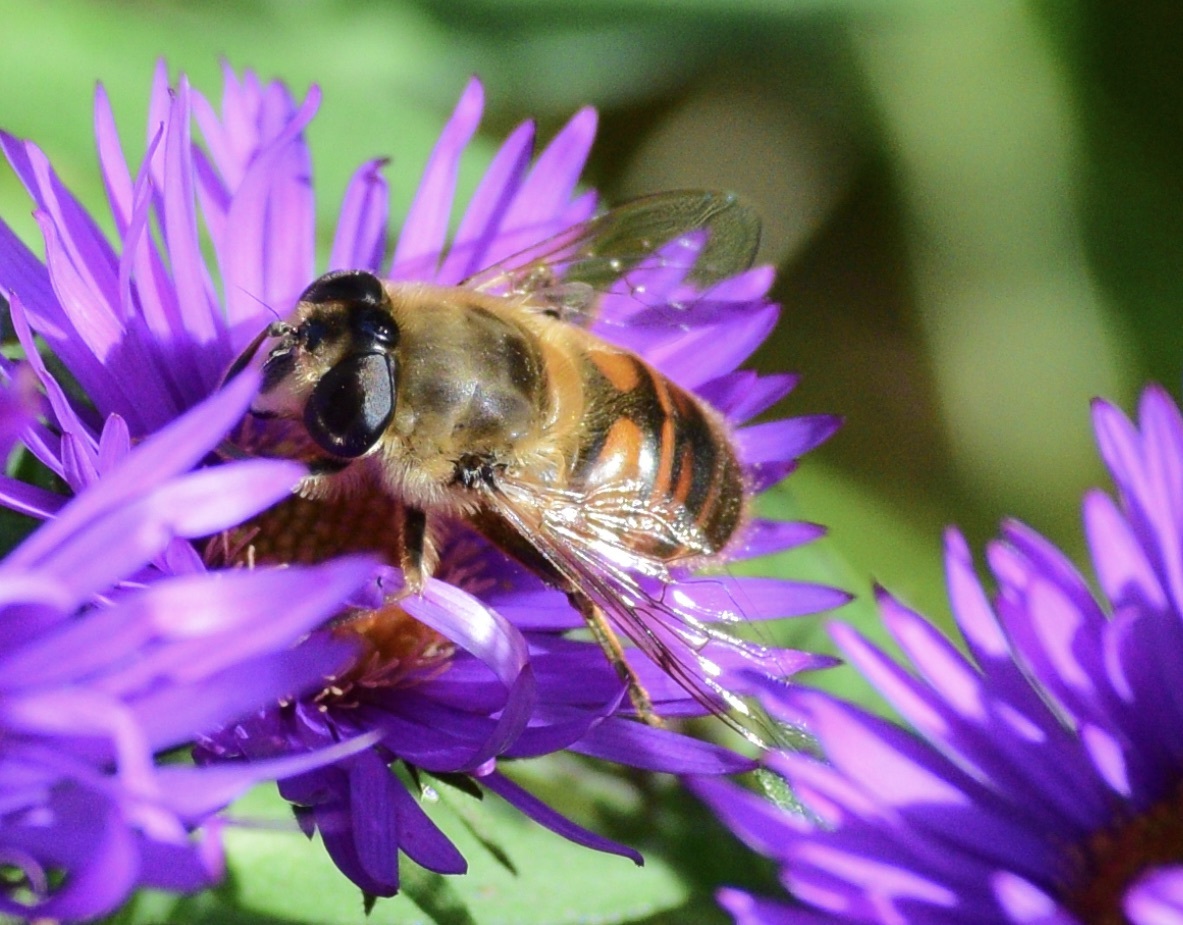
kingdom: Animalia
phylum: Arthropoda
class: Insecta
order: Diptera
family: Syrphidae
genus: Eristalis
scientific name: Eristalis tenax
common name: Drone fly
